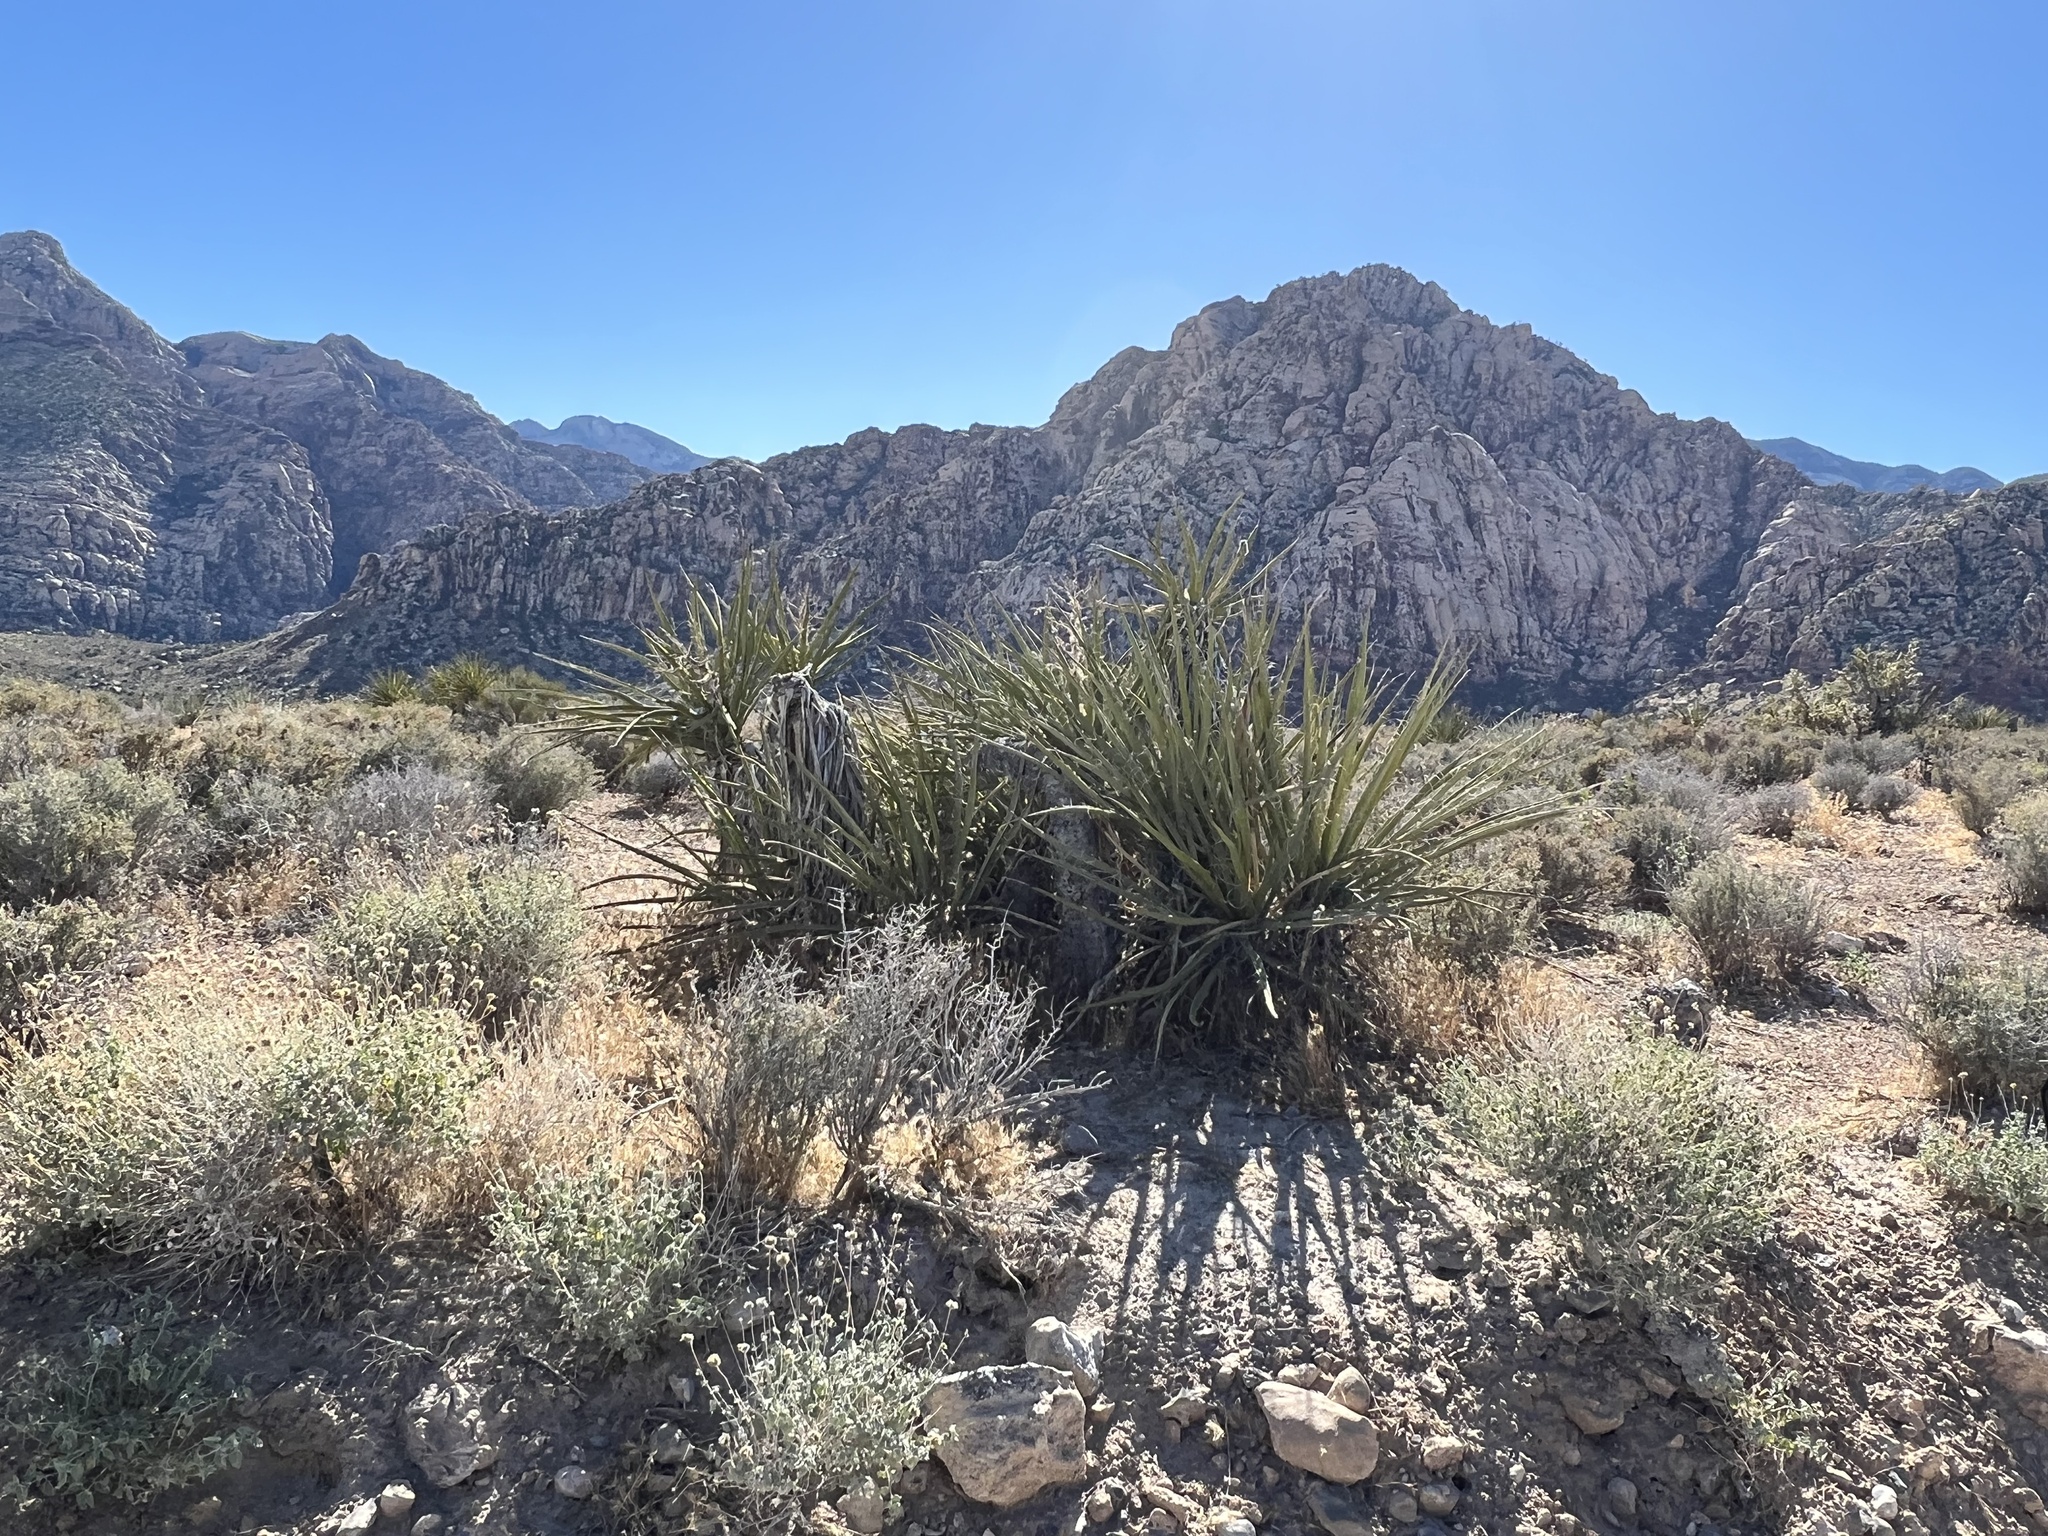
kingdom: Plantae
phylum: Tracheophyta
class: Liliopsida
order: Asparagales
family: Asparagaceae
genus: Yucca
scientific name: Yucca baccata
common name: Banana yucca
